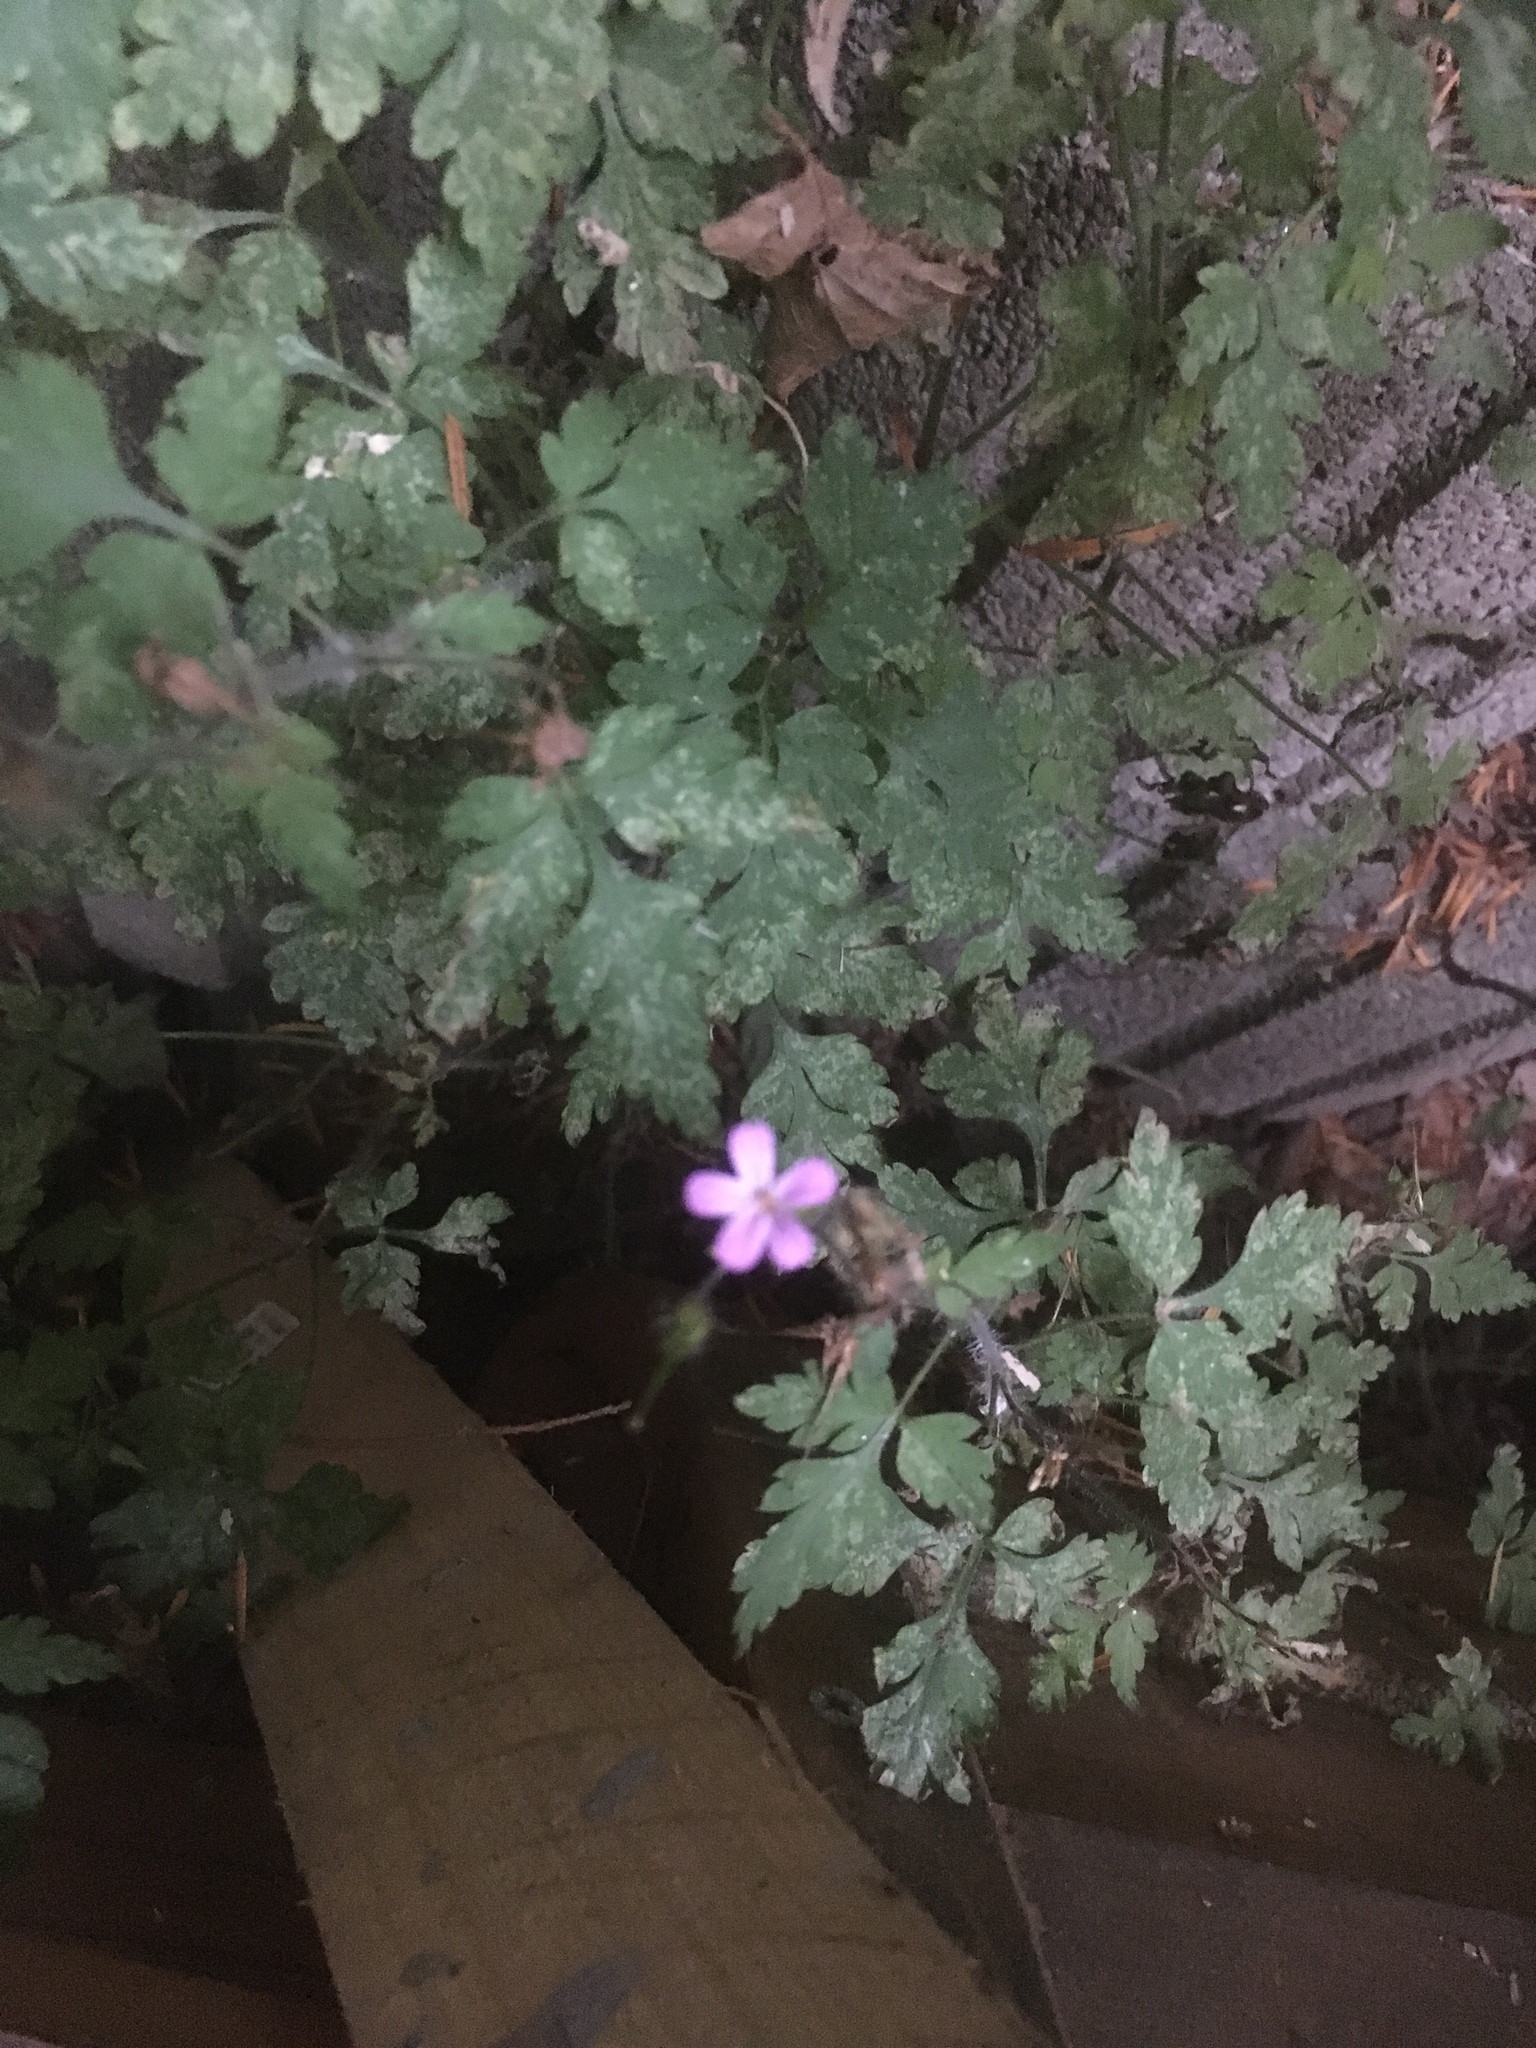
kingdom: Plantae
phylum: Tracheophyta
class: Magnoliopsida
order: Geraniales
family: Geraniaceae
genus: Geranium
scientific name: Geranium robertianum
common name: Herb-robert
